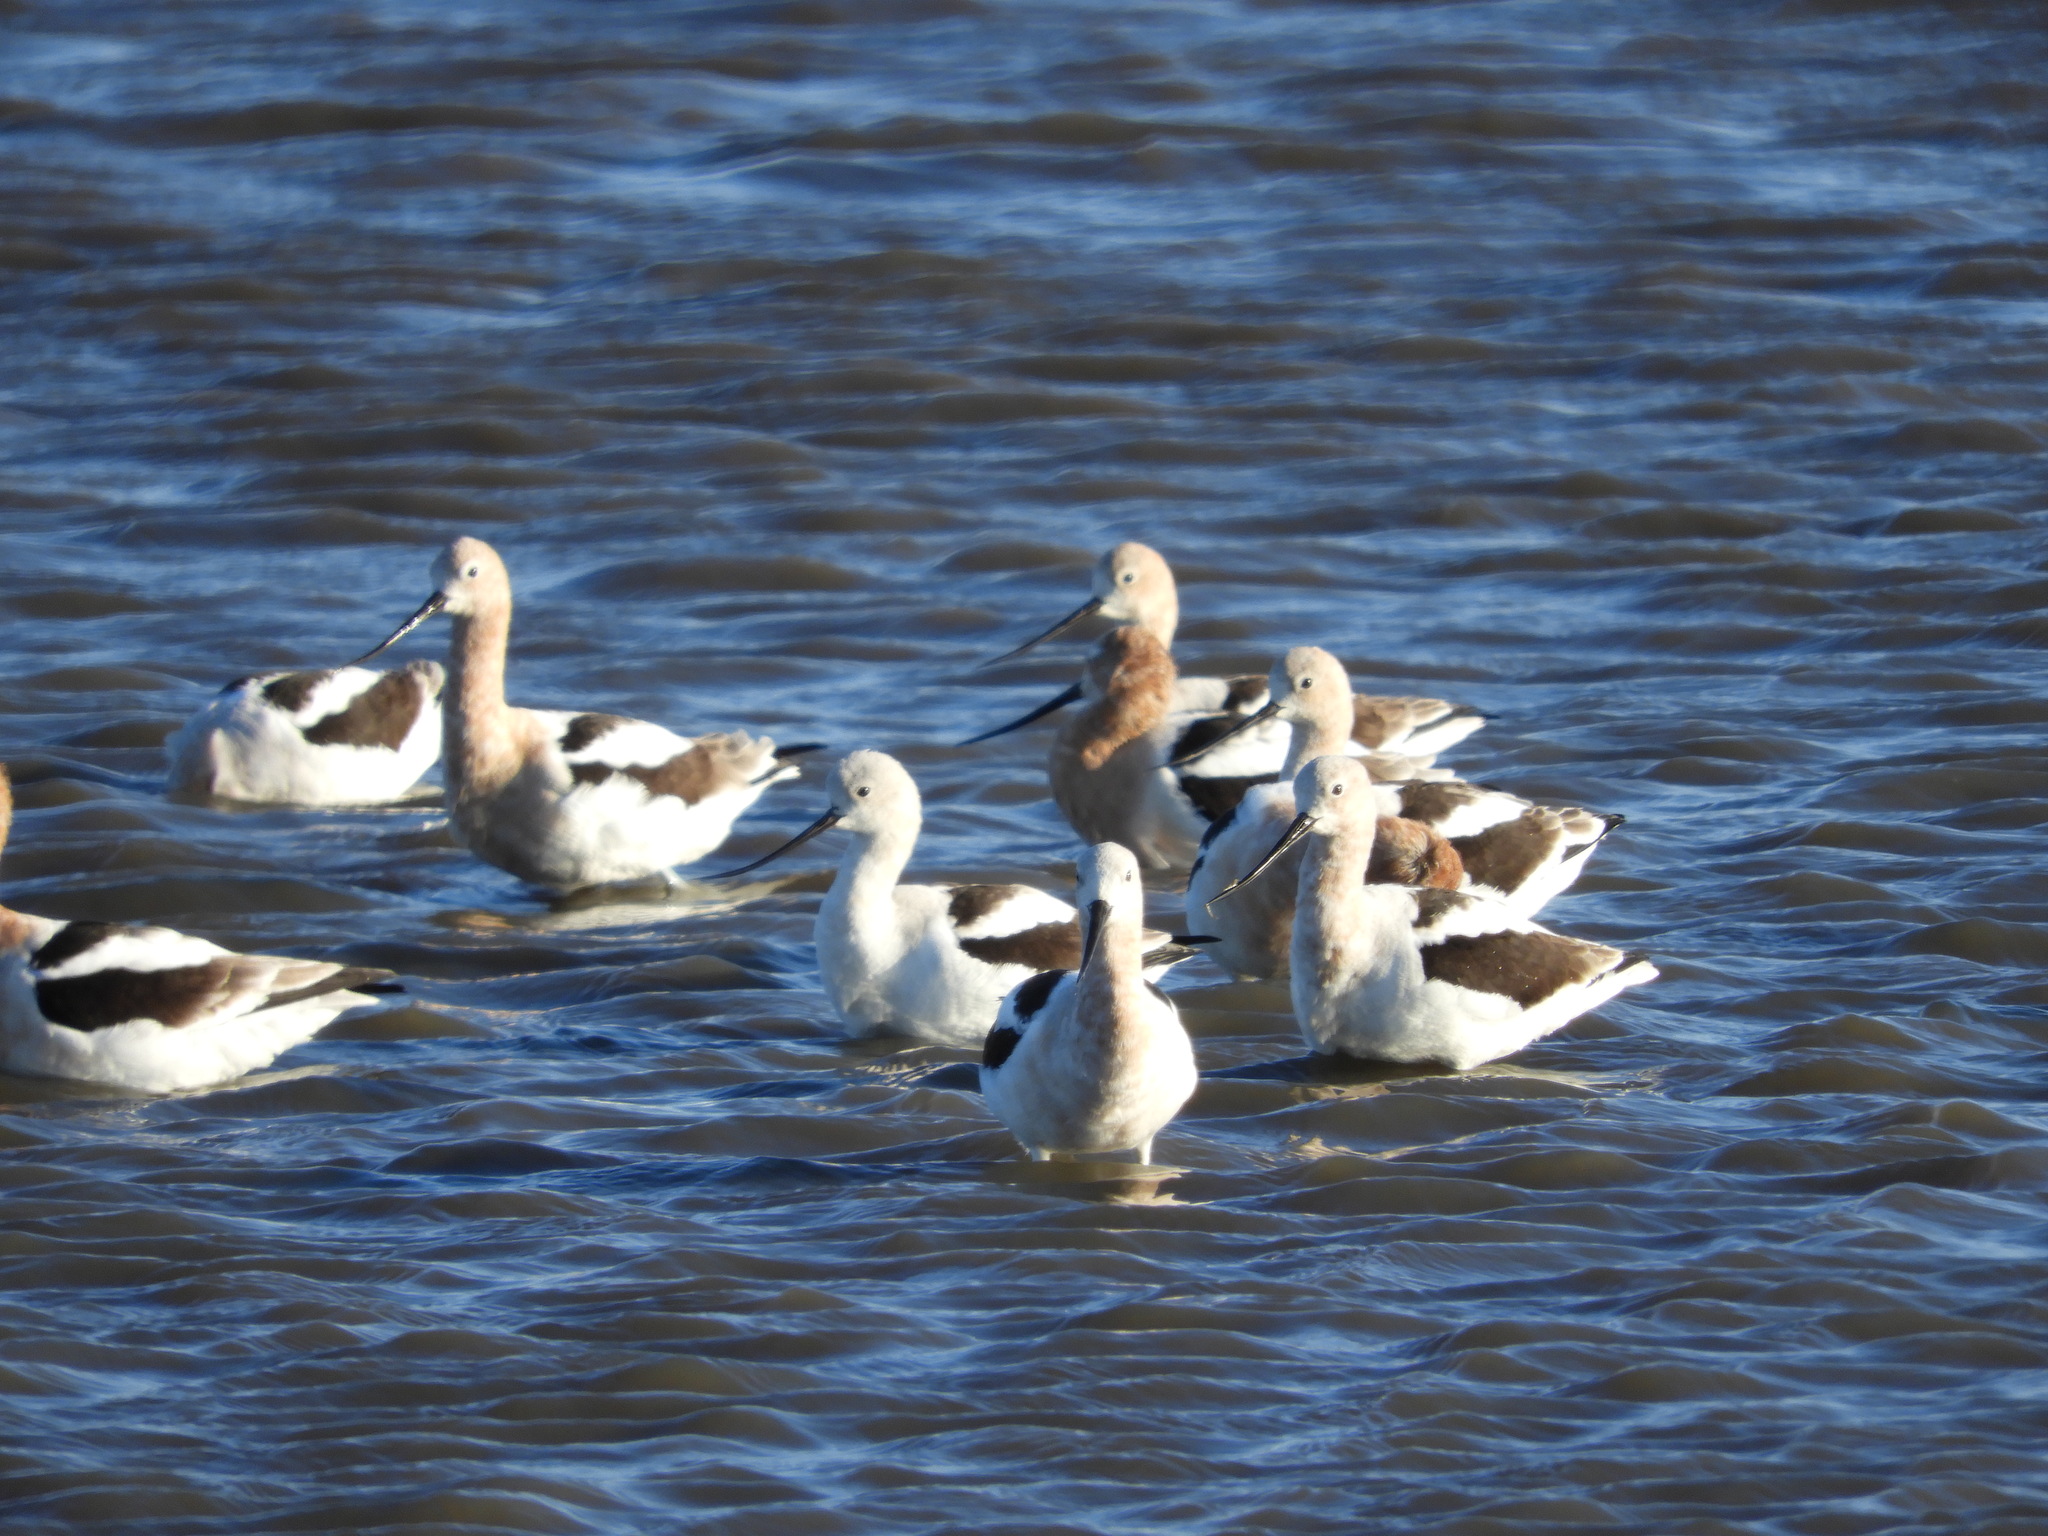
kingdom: Animalia
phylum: Chordata
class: Aves
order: Charadriiformes
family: Recurvirostridae
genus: Recurvirostra
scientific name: Recurvirostra americana
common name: American avocet
